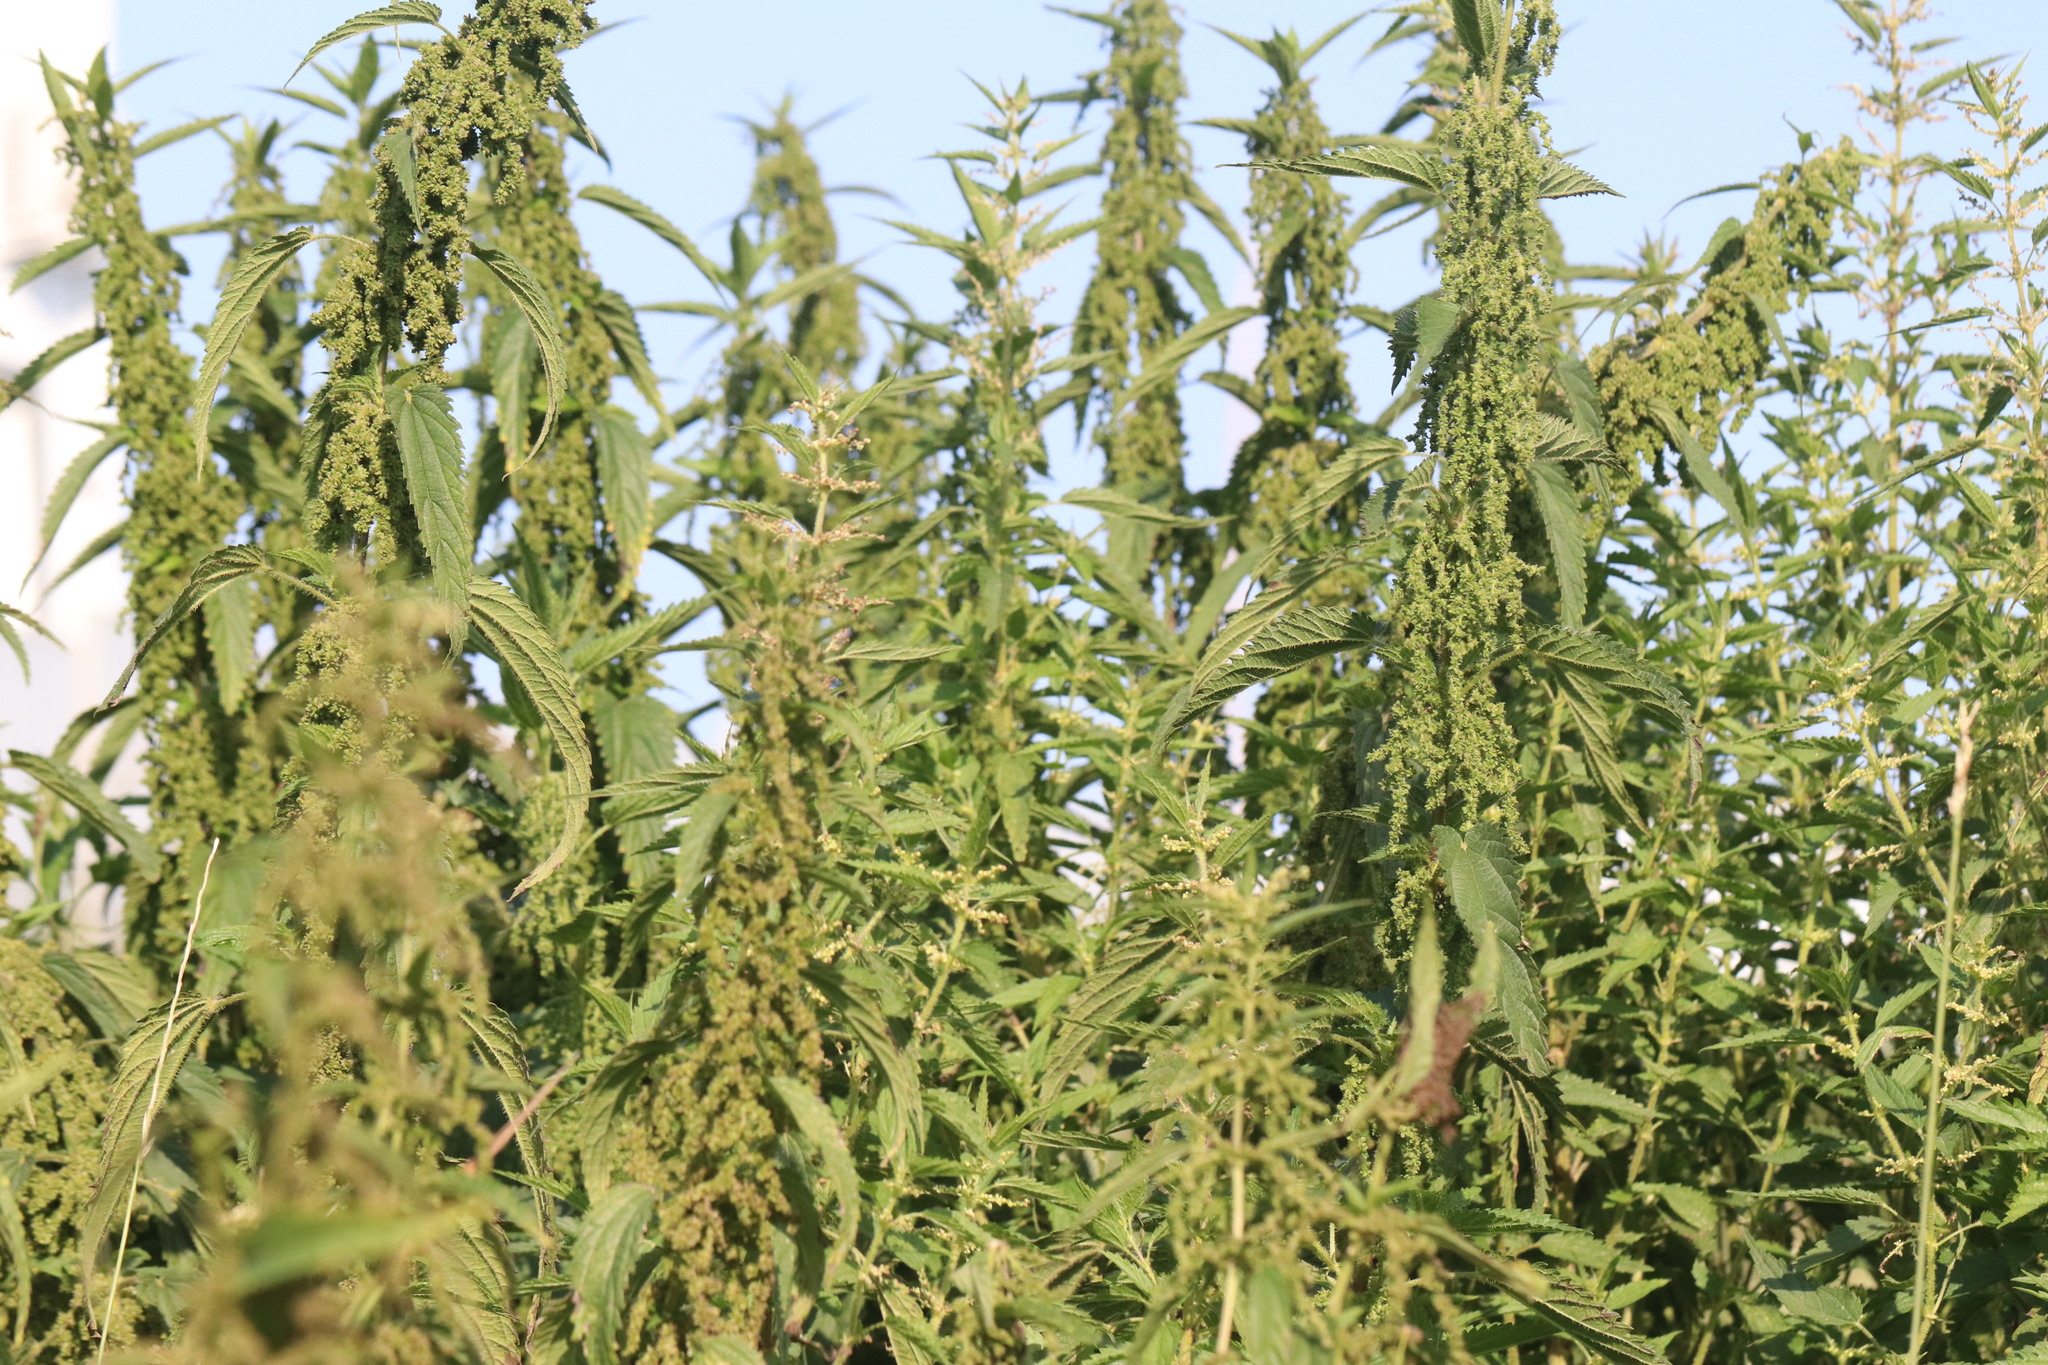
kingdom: Plantae
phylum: Tracheophyta
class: Magnoliopsida
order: Rosales
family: Urticaceae
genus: Urtica
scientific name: Urtica dioica
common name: Common nettle
